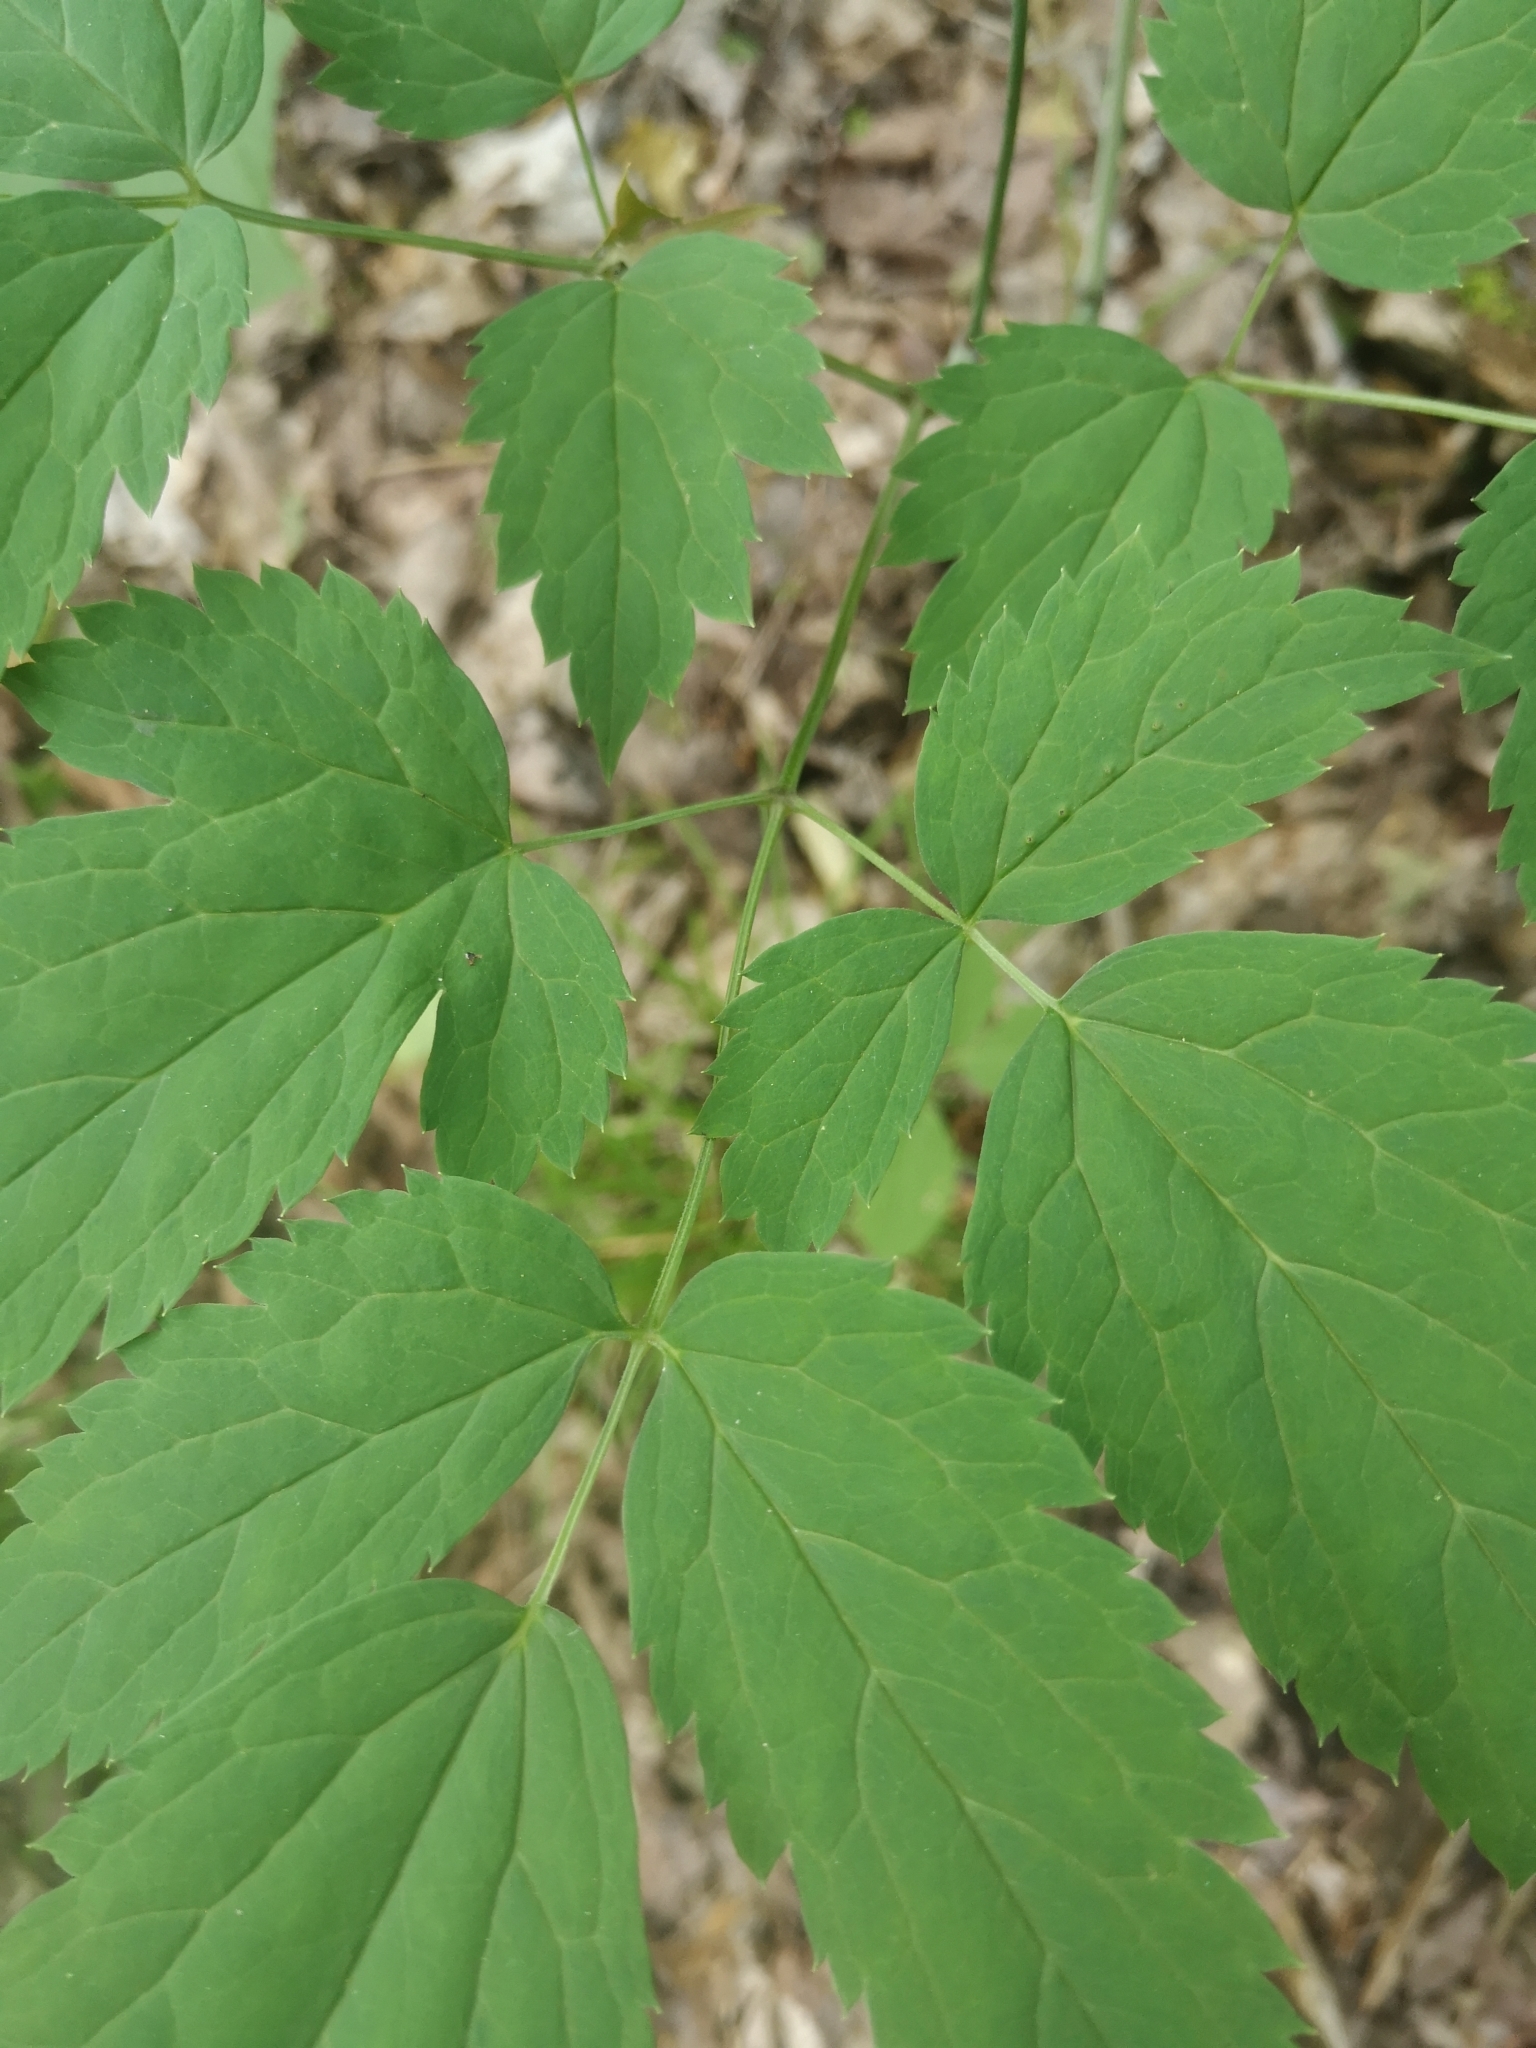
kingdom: Plantae
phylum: Tracheophyta
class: Magnoliopsida
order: Ranunculales
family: Ranunculaceae
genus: Actaea
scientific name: Actaea pachypoda
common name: Doll's-eyes
